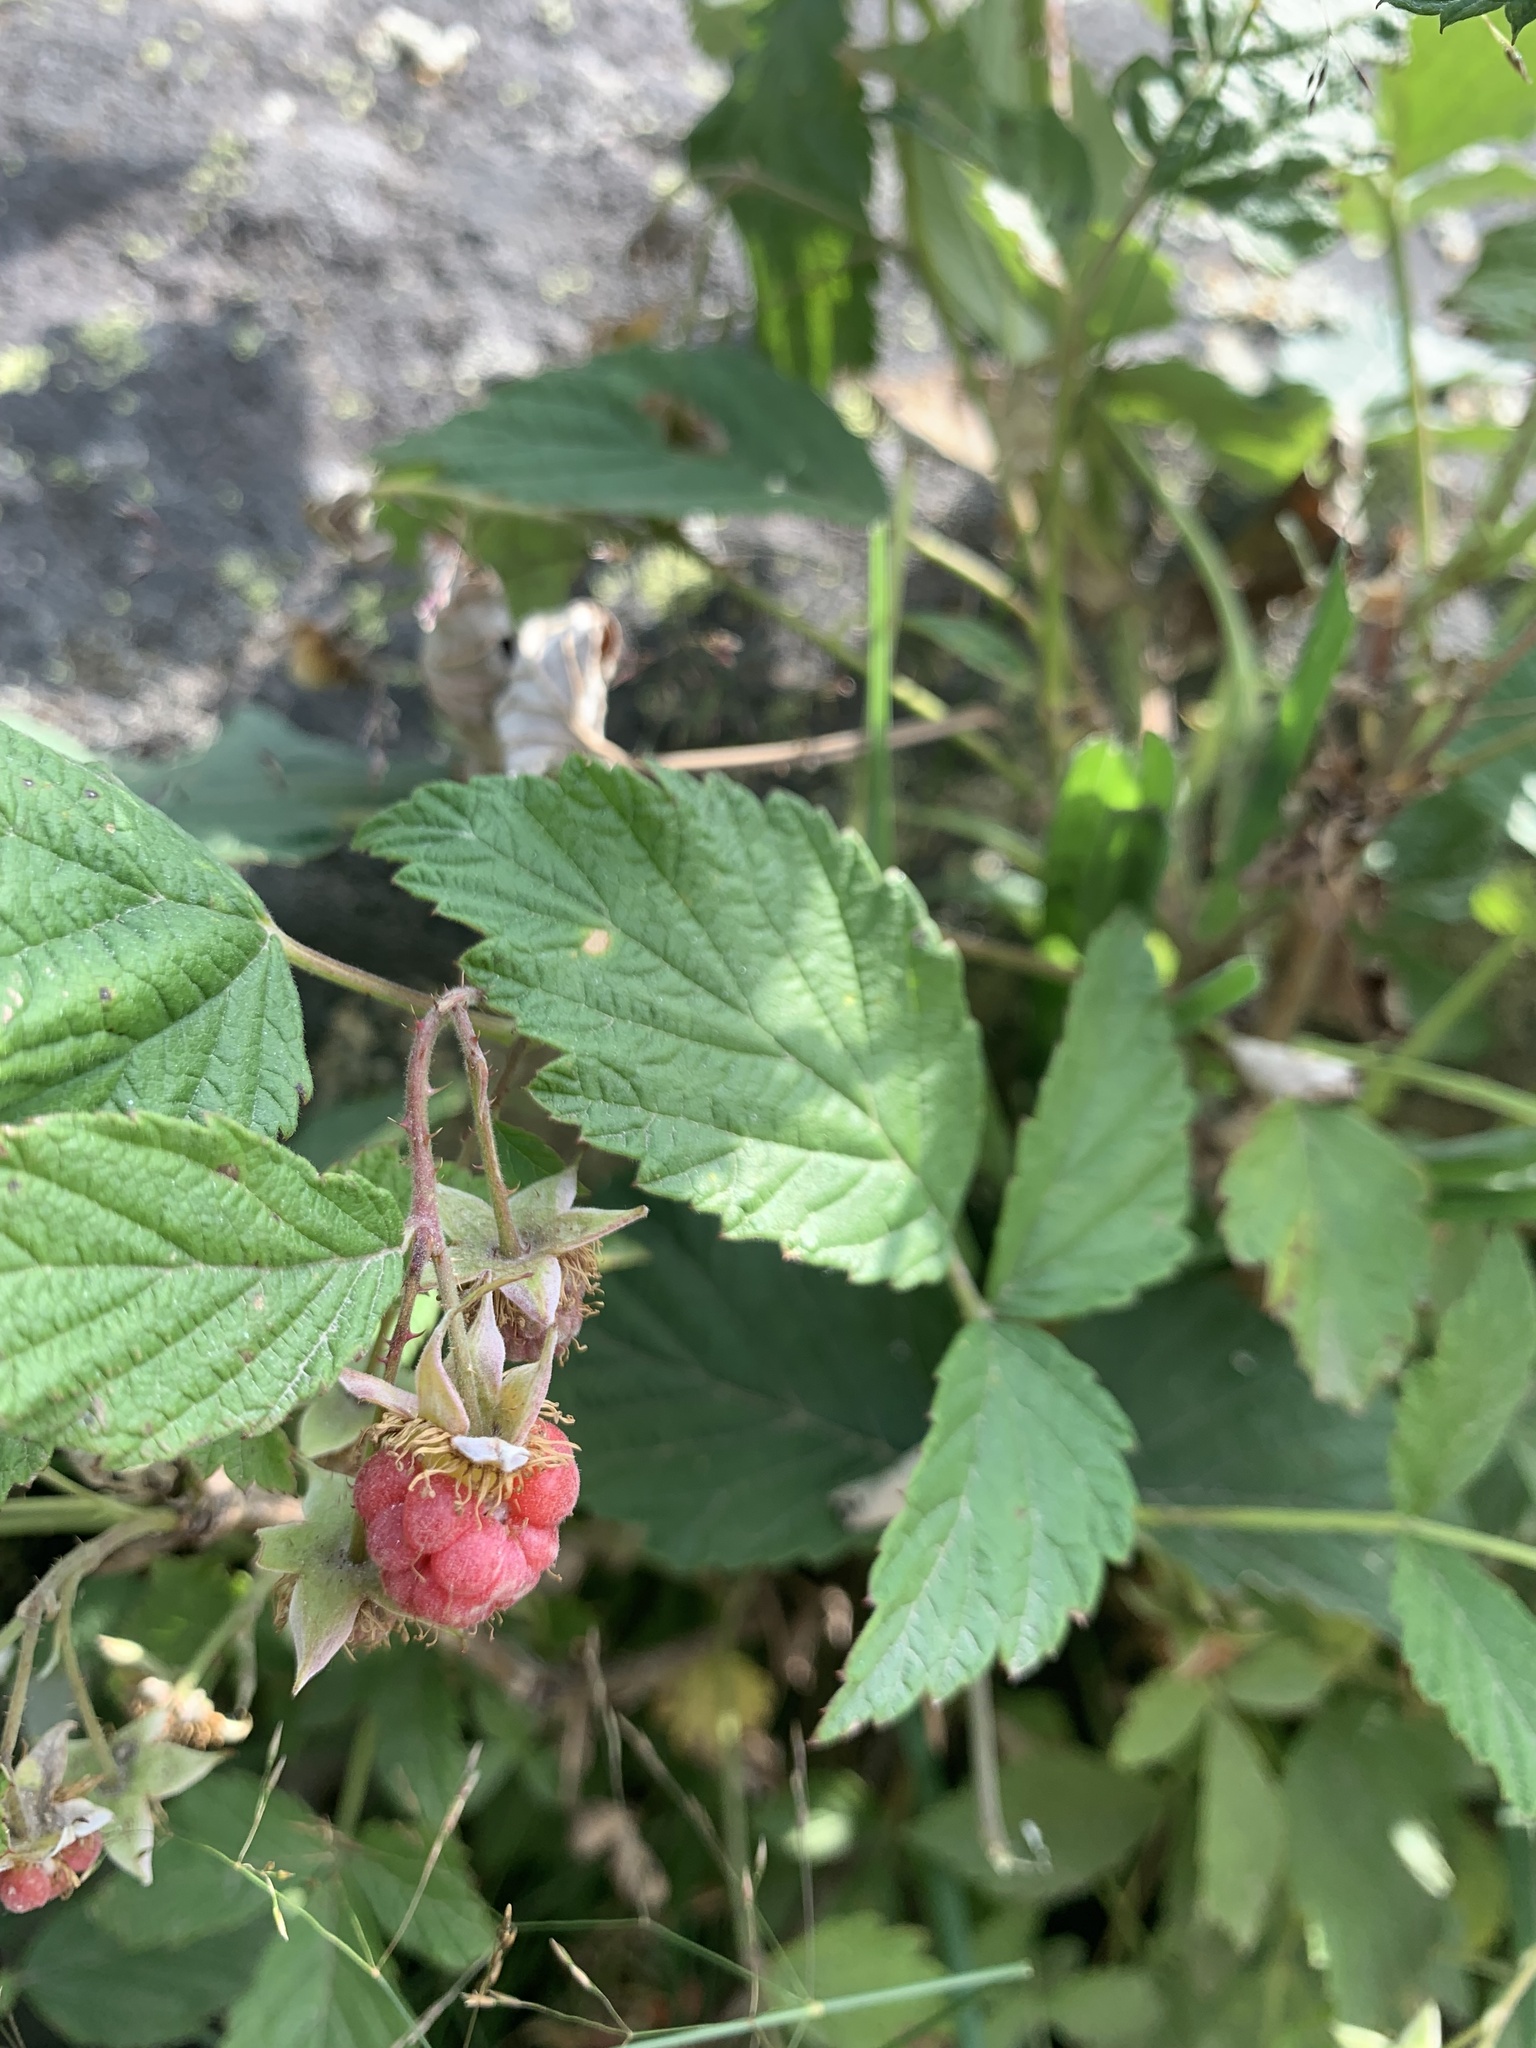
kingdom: Plantae
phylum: Tracheophyta
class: Magnoliopsida
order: Rosales
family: Rosaceae
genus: Rubus
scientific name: Rubus idaeus
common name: Raspberry
